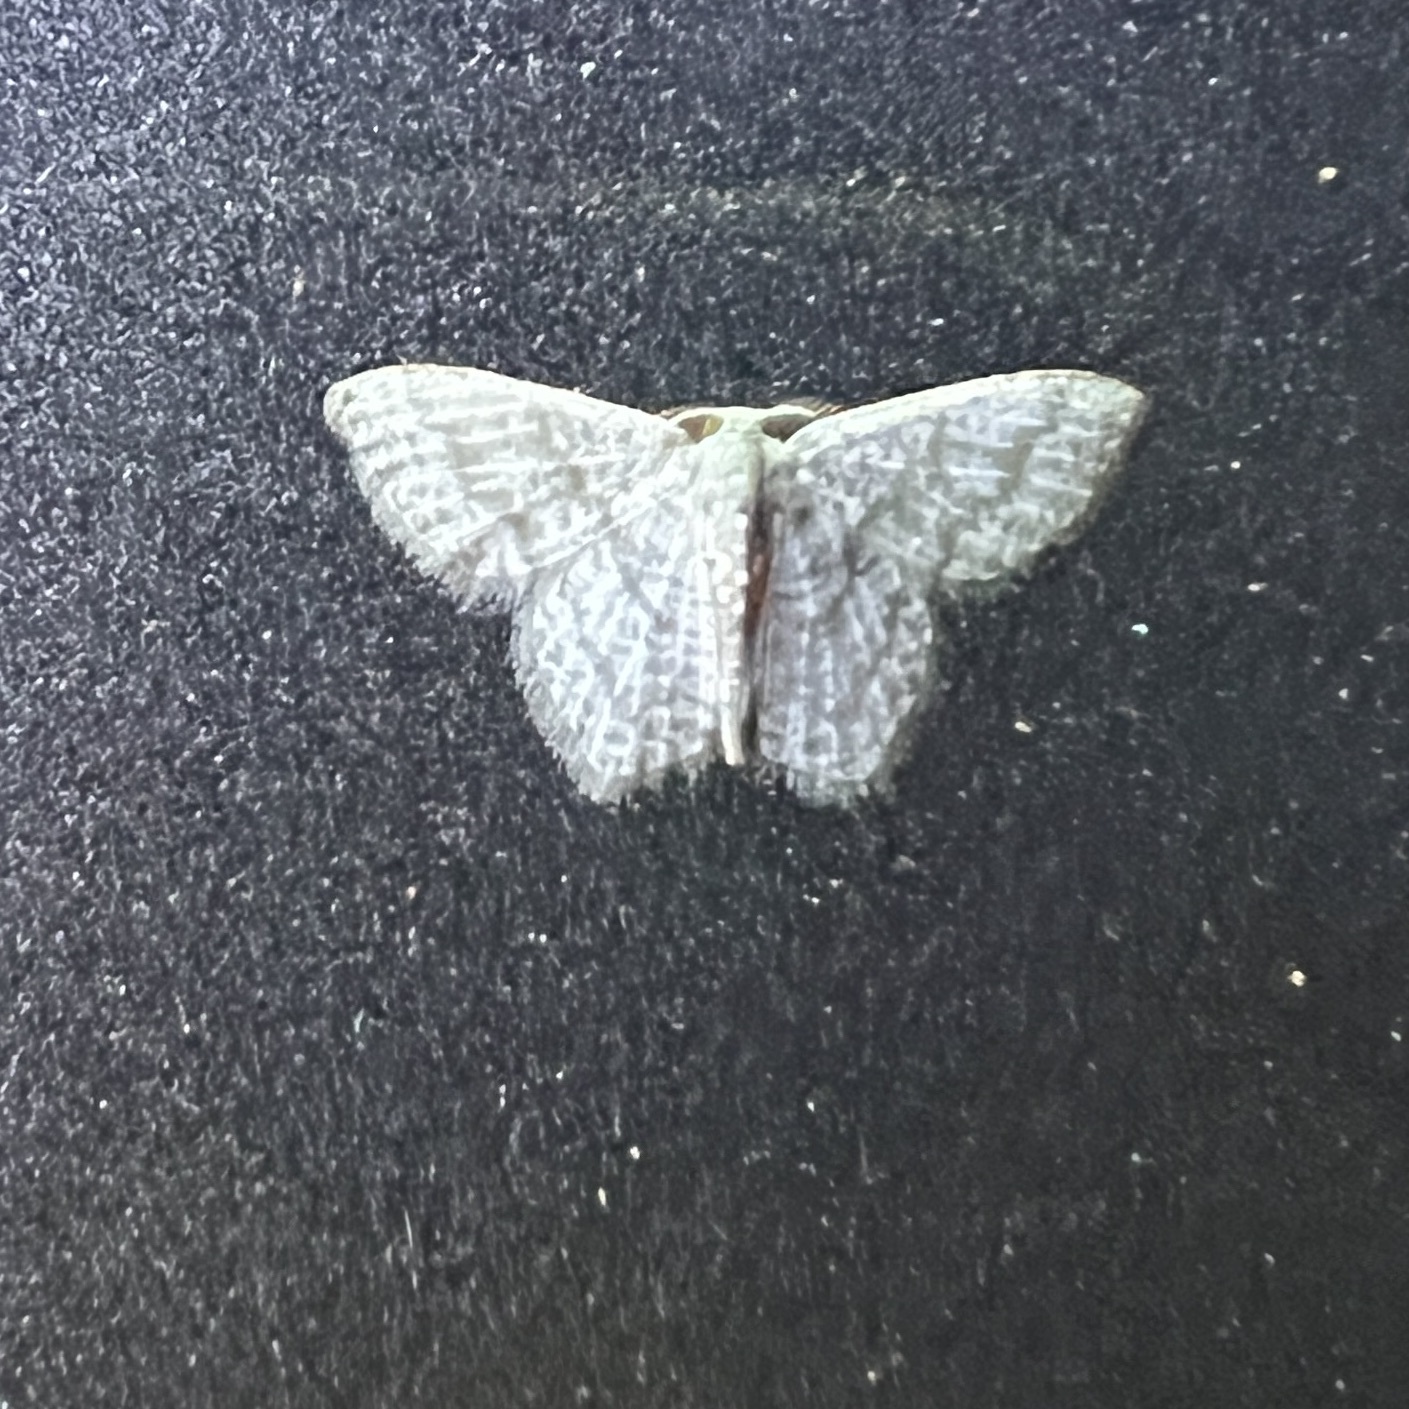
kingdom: Animalia
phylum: Arthropoda
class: Insecta
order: Lepidoptera
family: Geometridae
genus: Chloropteryx
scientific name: Chloropteryx opalaria
